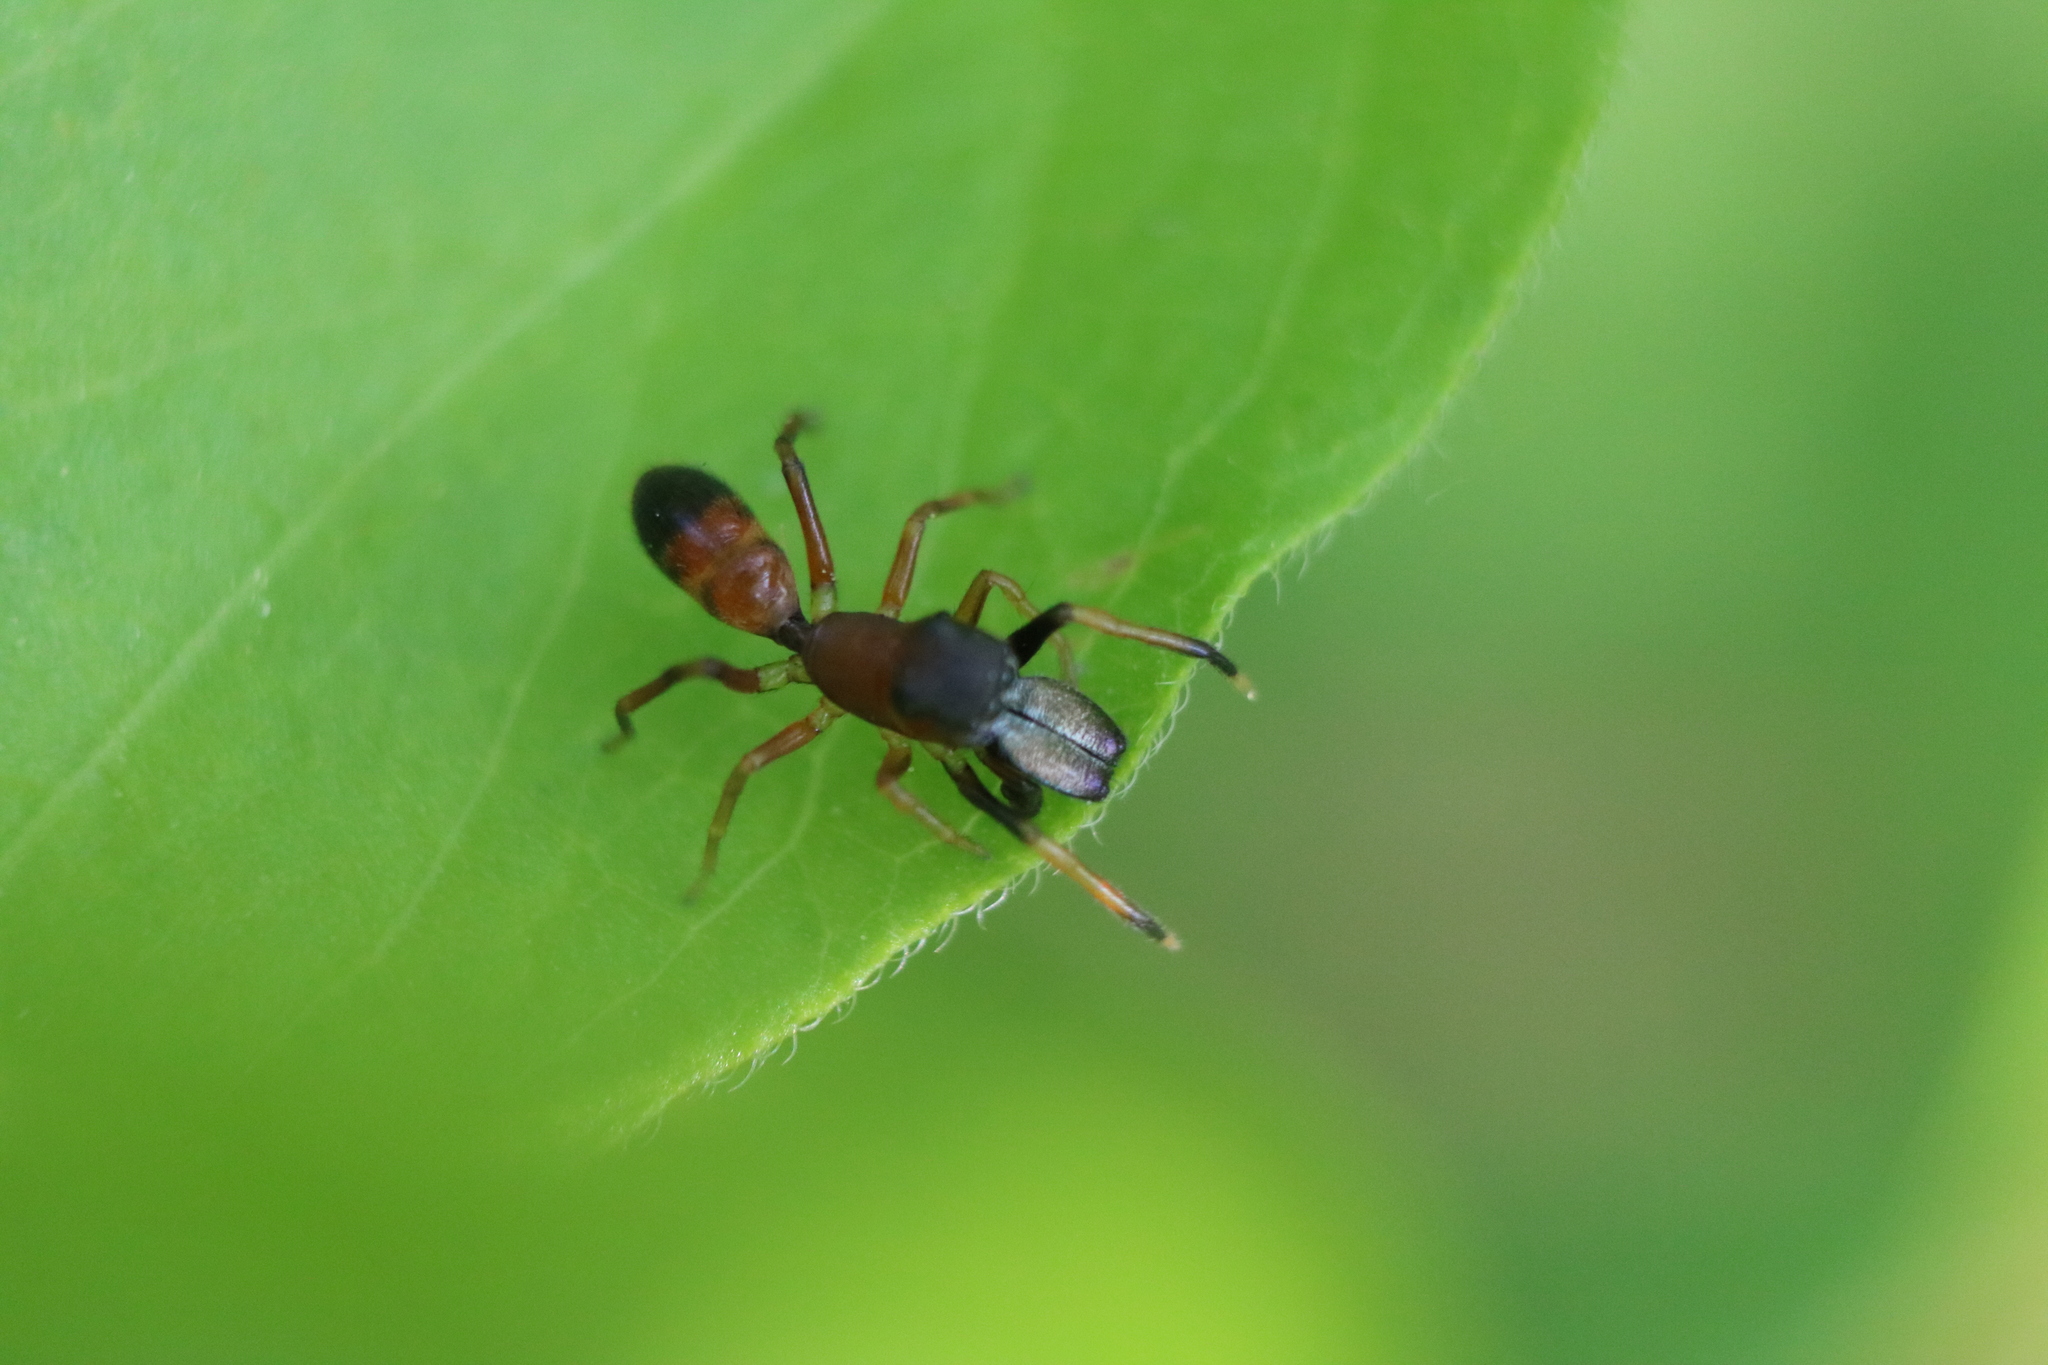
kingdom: Animalia
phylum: Arthropoda
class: Arachnida
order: Araneae
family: Salticidae
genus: Myrmarachne
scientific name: Myrmarachne formicaria
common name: Ant mimic jumping spider
